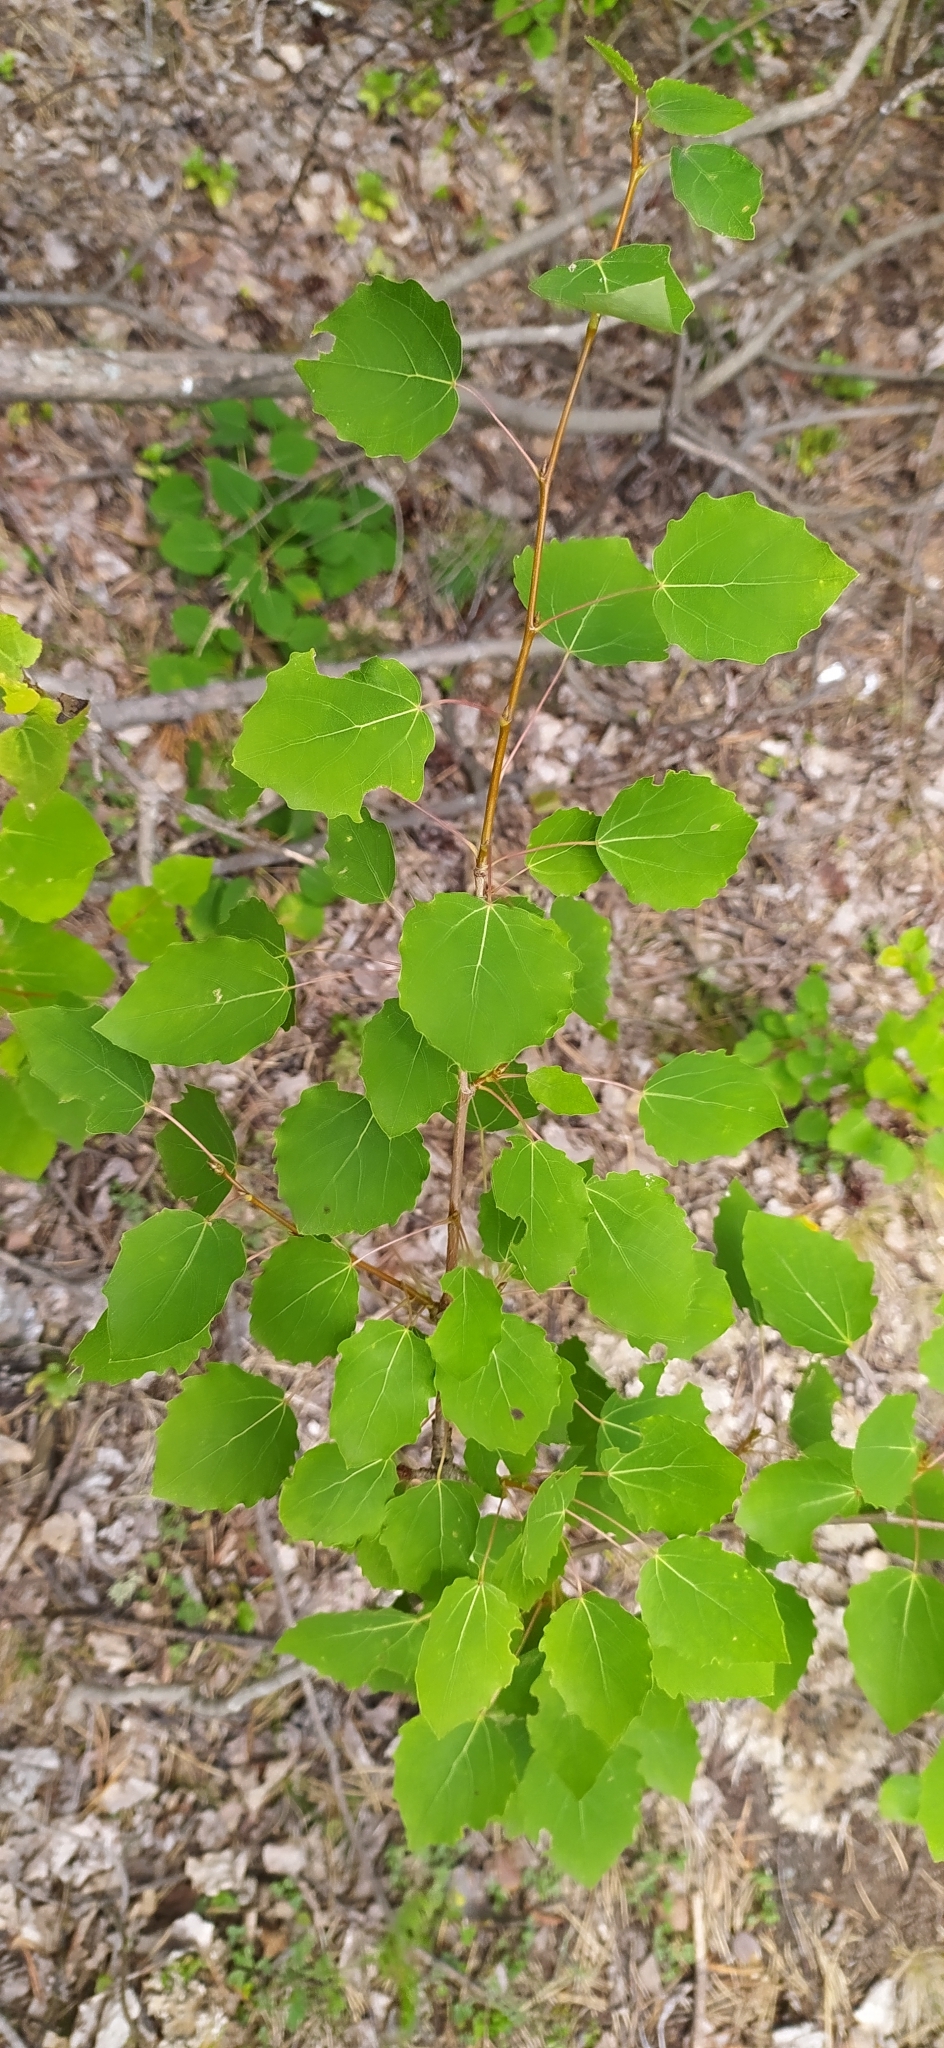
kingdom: Plantae
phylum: Tracheophyta
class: Magnoliopsida
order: Malpighiales
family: Salicaceae
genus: Populus
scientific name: Populus tremula
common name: European aspen
